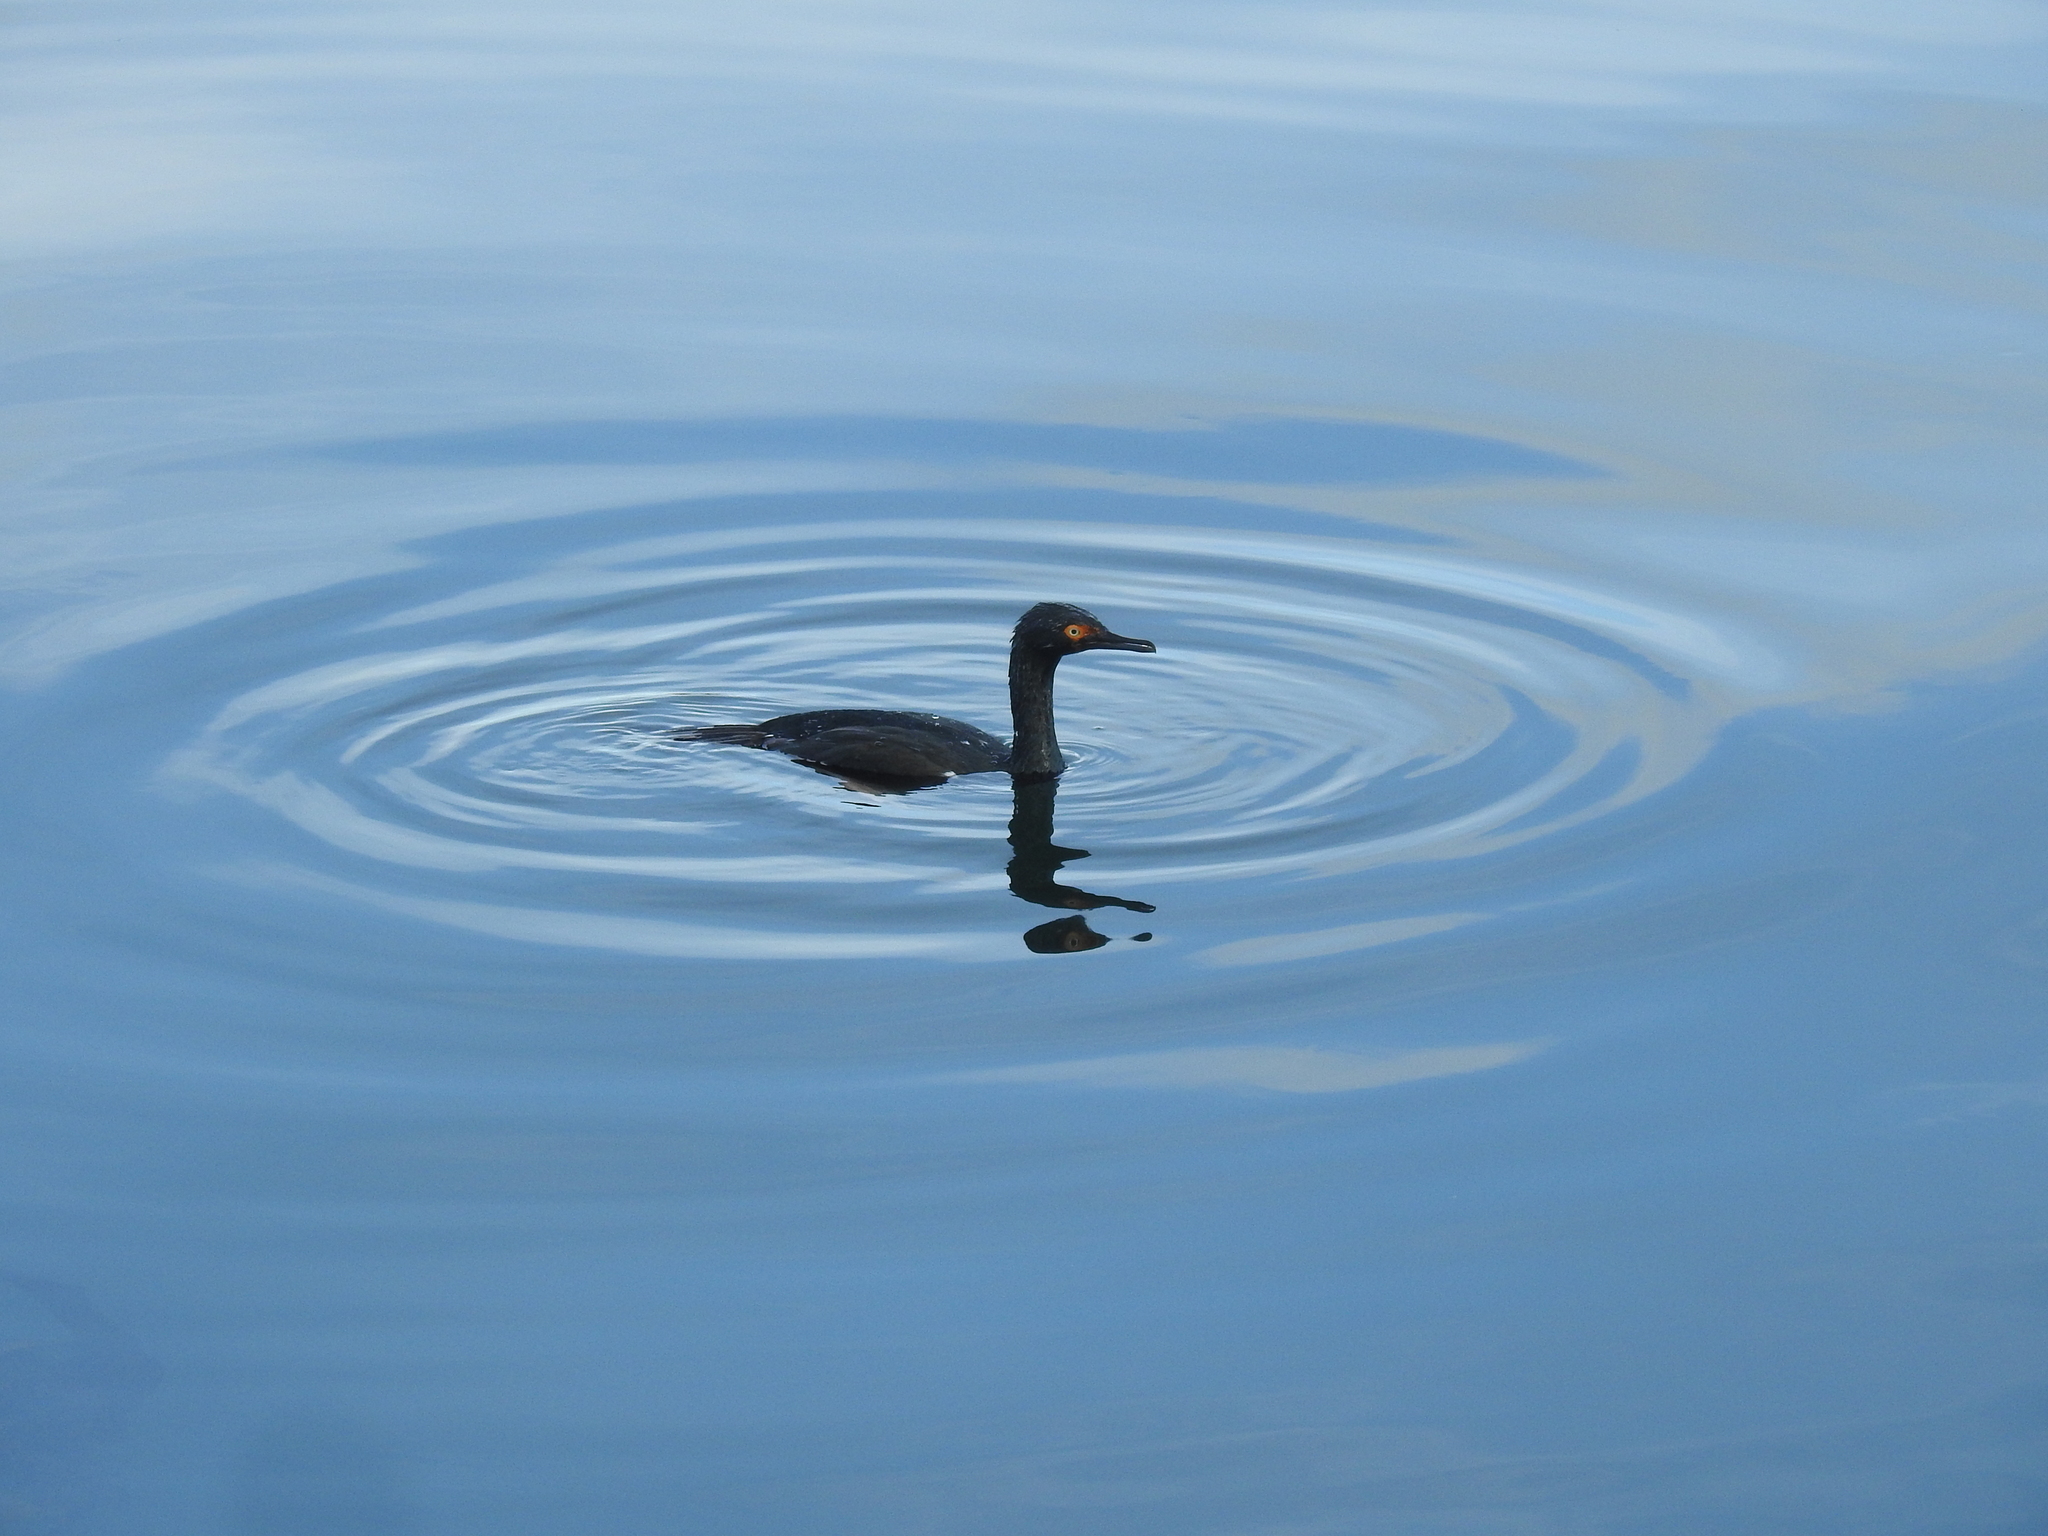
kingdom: Animalia
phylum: Chordata
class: Aves
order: Suliformes
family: Phalacrocoracidae
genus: Phalacrocorax
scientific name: Phalacrocorax magellanicus
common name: Rock shag
